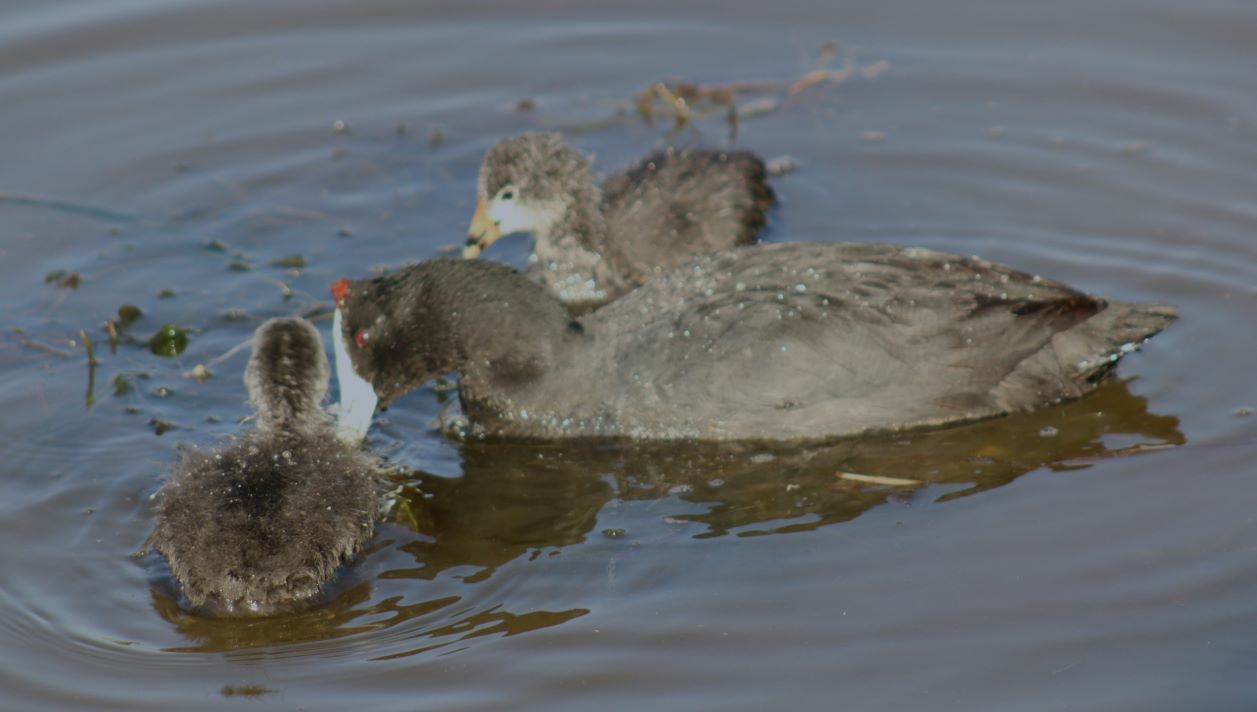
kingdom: Animalia
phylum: Chordata
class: Aves
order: Gruiformes
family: Rallidae
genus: Fulica
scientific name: Fulica cristata
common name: Red-knobbed coot
